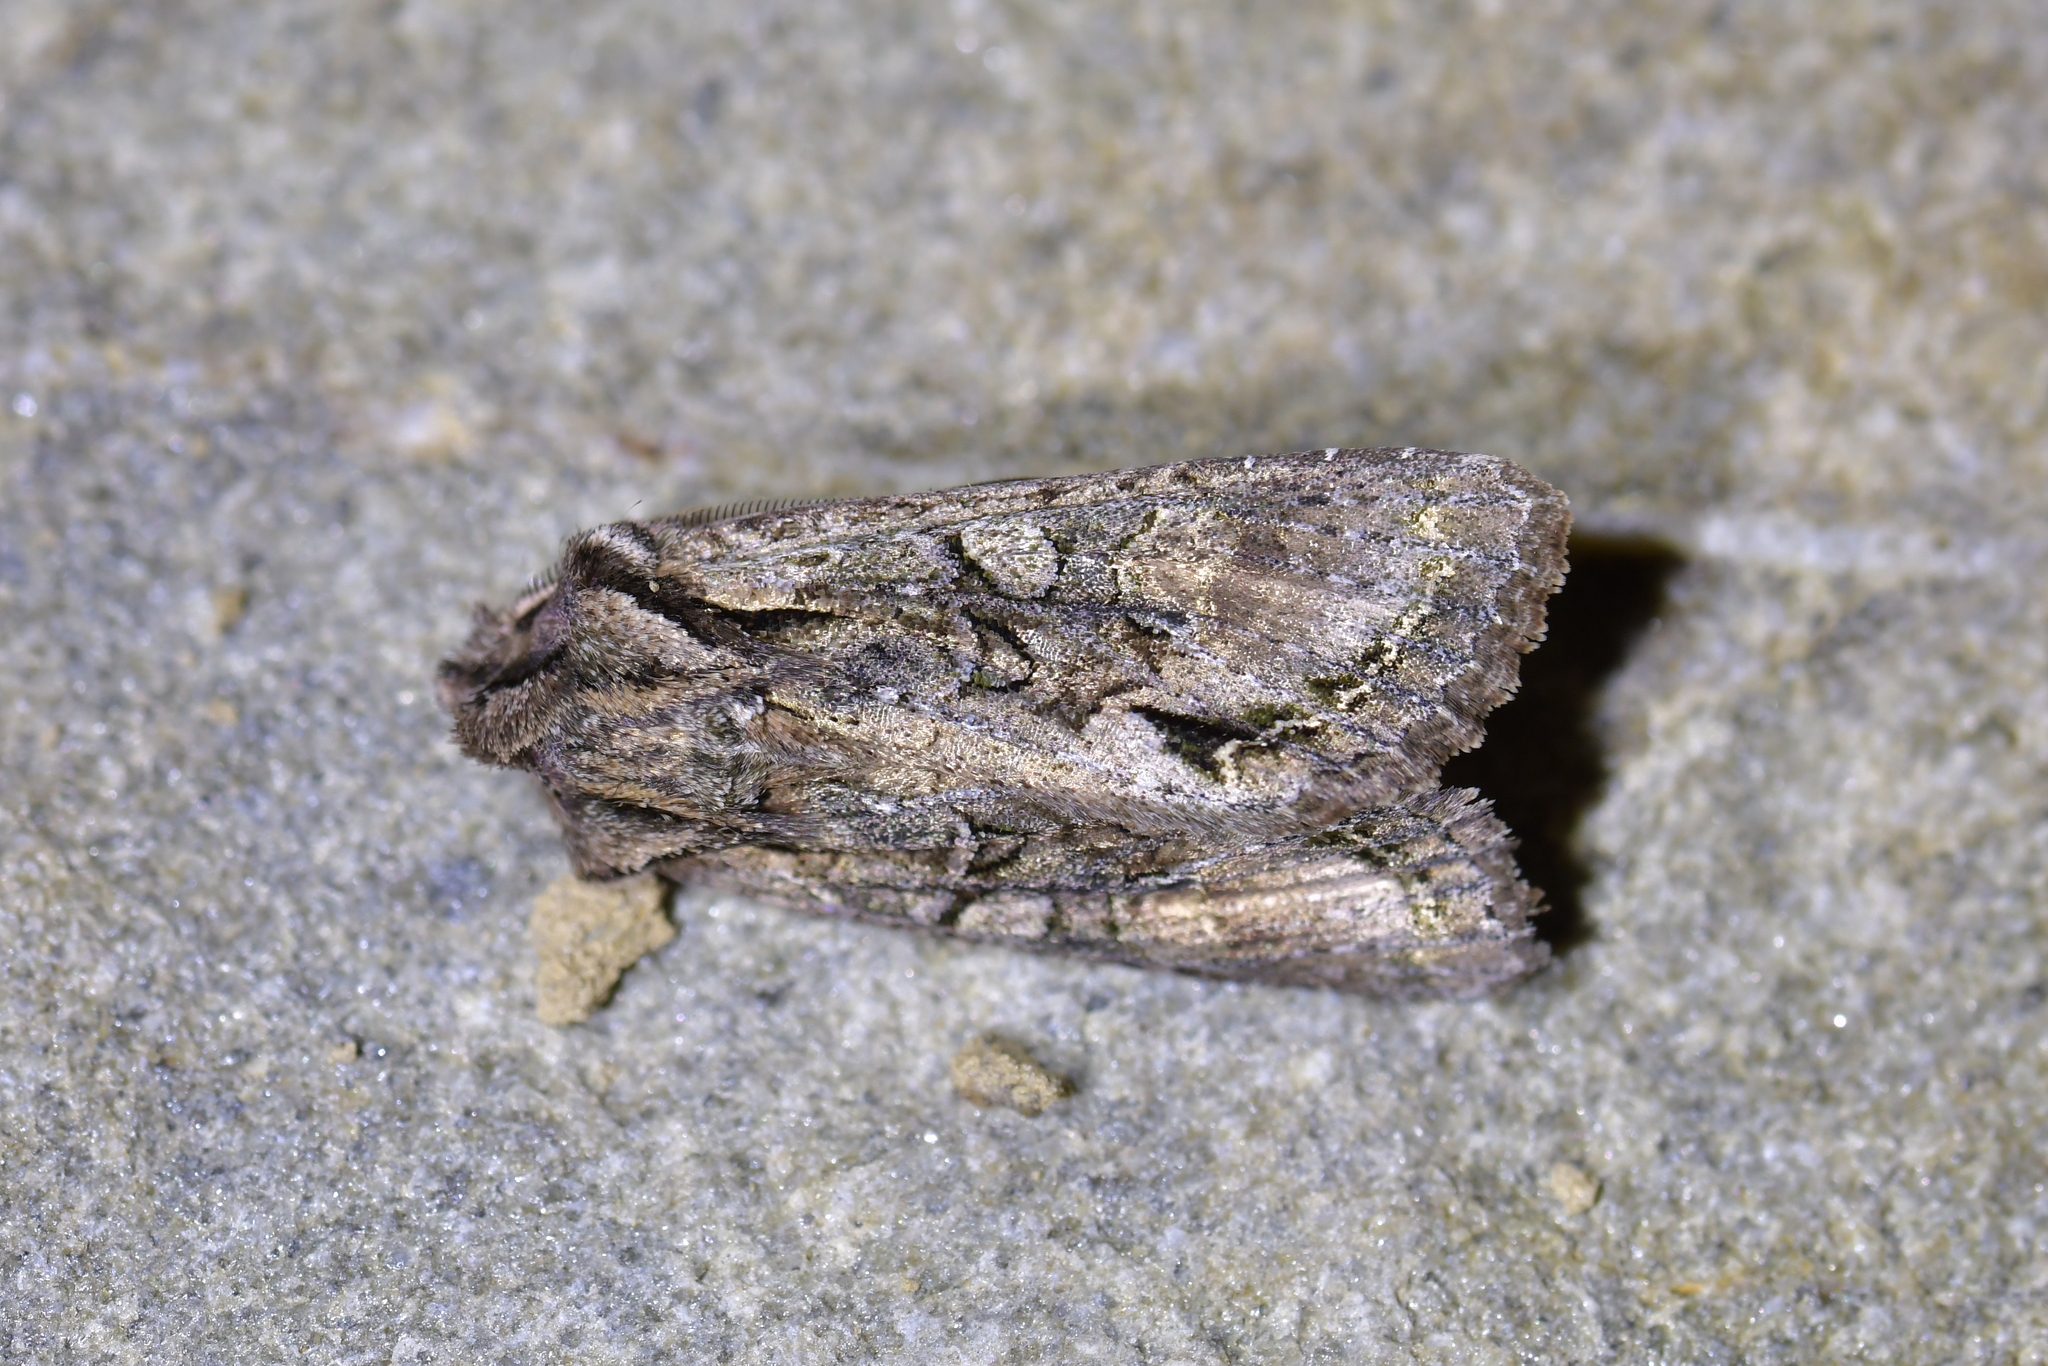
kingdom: Animalia
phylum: Arthropoda
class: Insecta
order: Lepidoptera
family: Noctuidae
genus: Ichneutica
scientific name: Ichneutica mutans
